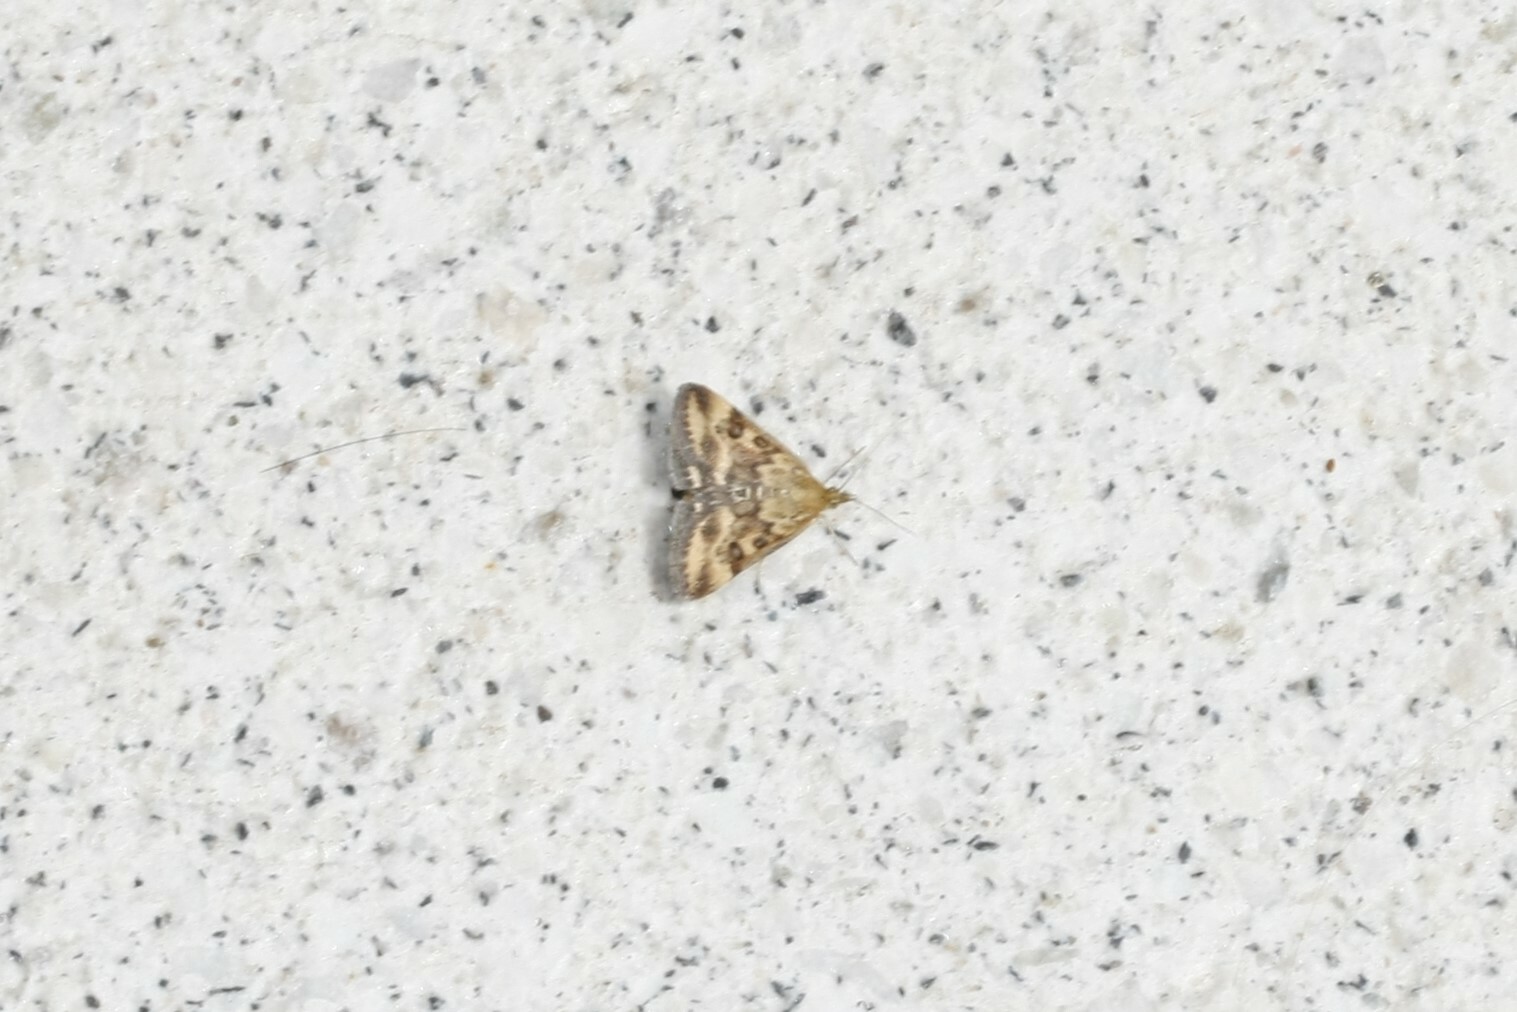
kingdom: Animalia
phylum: Arthropoda
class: Insecta
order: Lepidoptera
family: Crambidae
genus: Pyrausta
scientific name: Pyrausta despicata
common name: Straw-barred pearl
